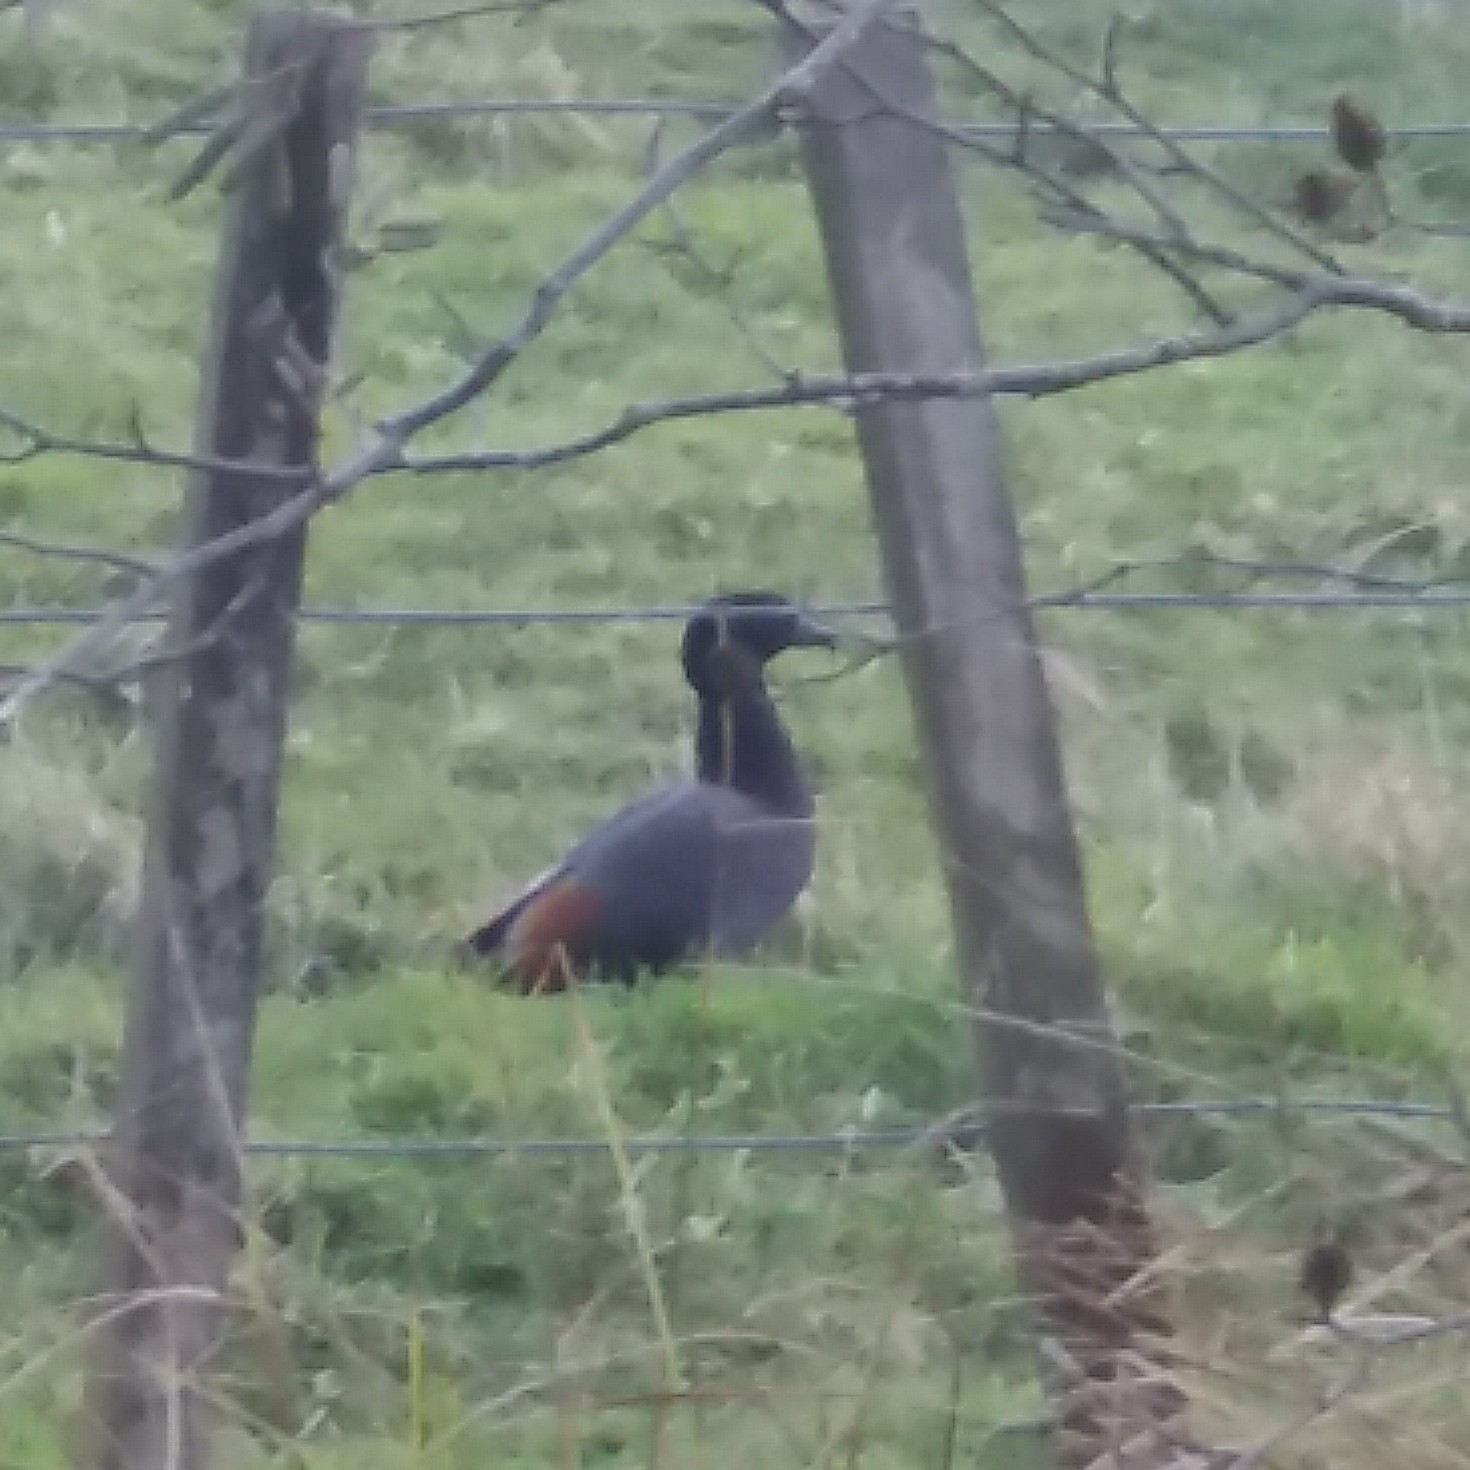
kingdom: Animalia
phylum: Chordata
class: Aves
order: Anseriformes
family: Anatidae
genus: Tadorna
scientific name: Tadorna variegata
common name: Paradise shelduck
